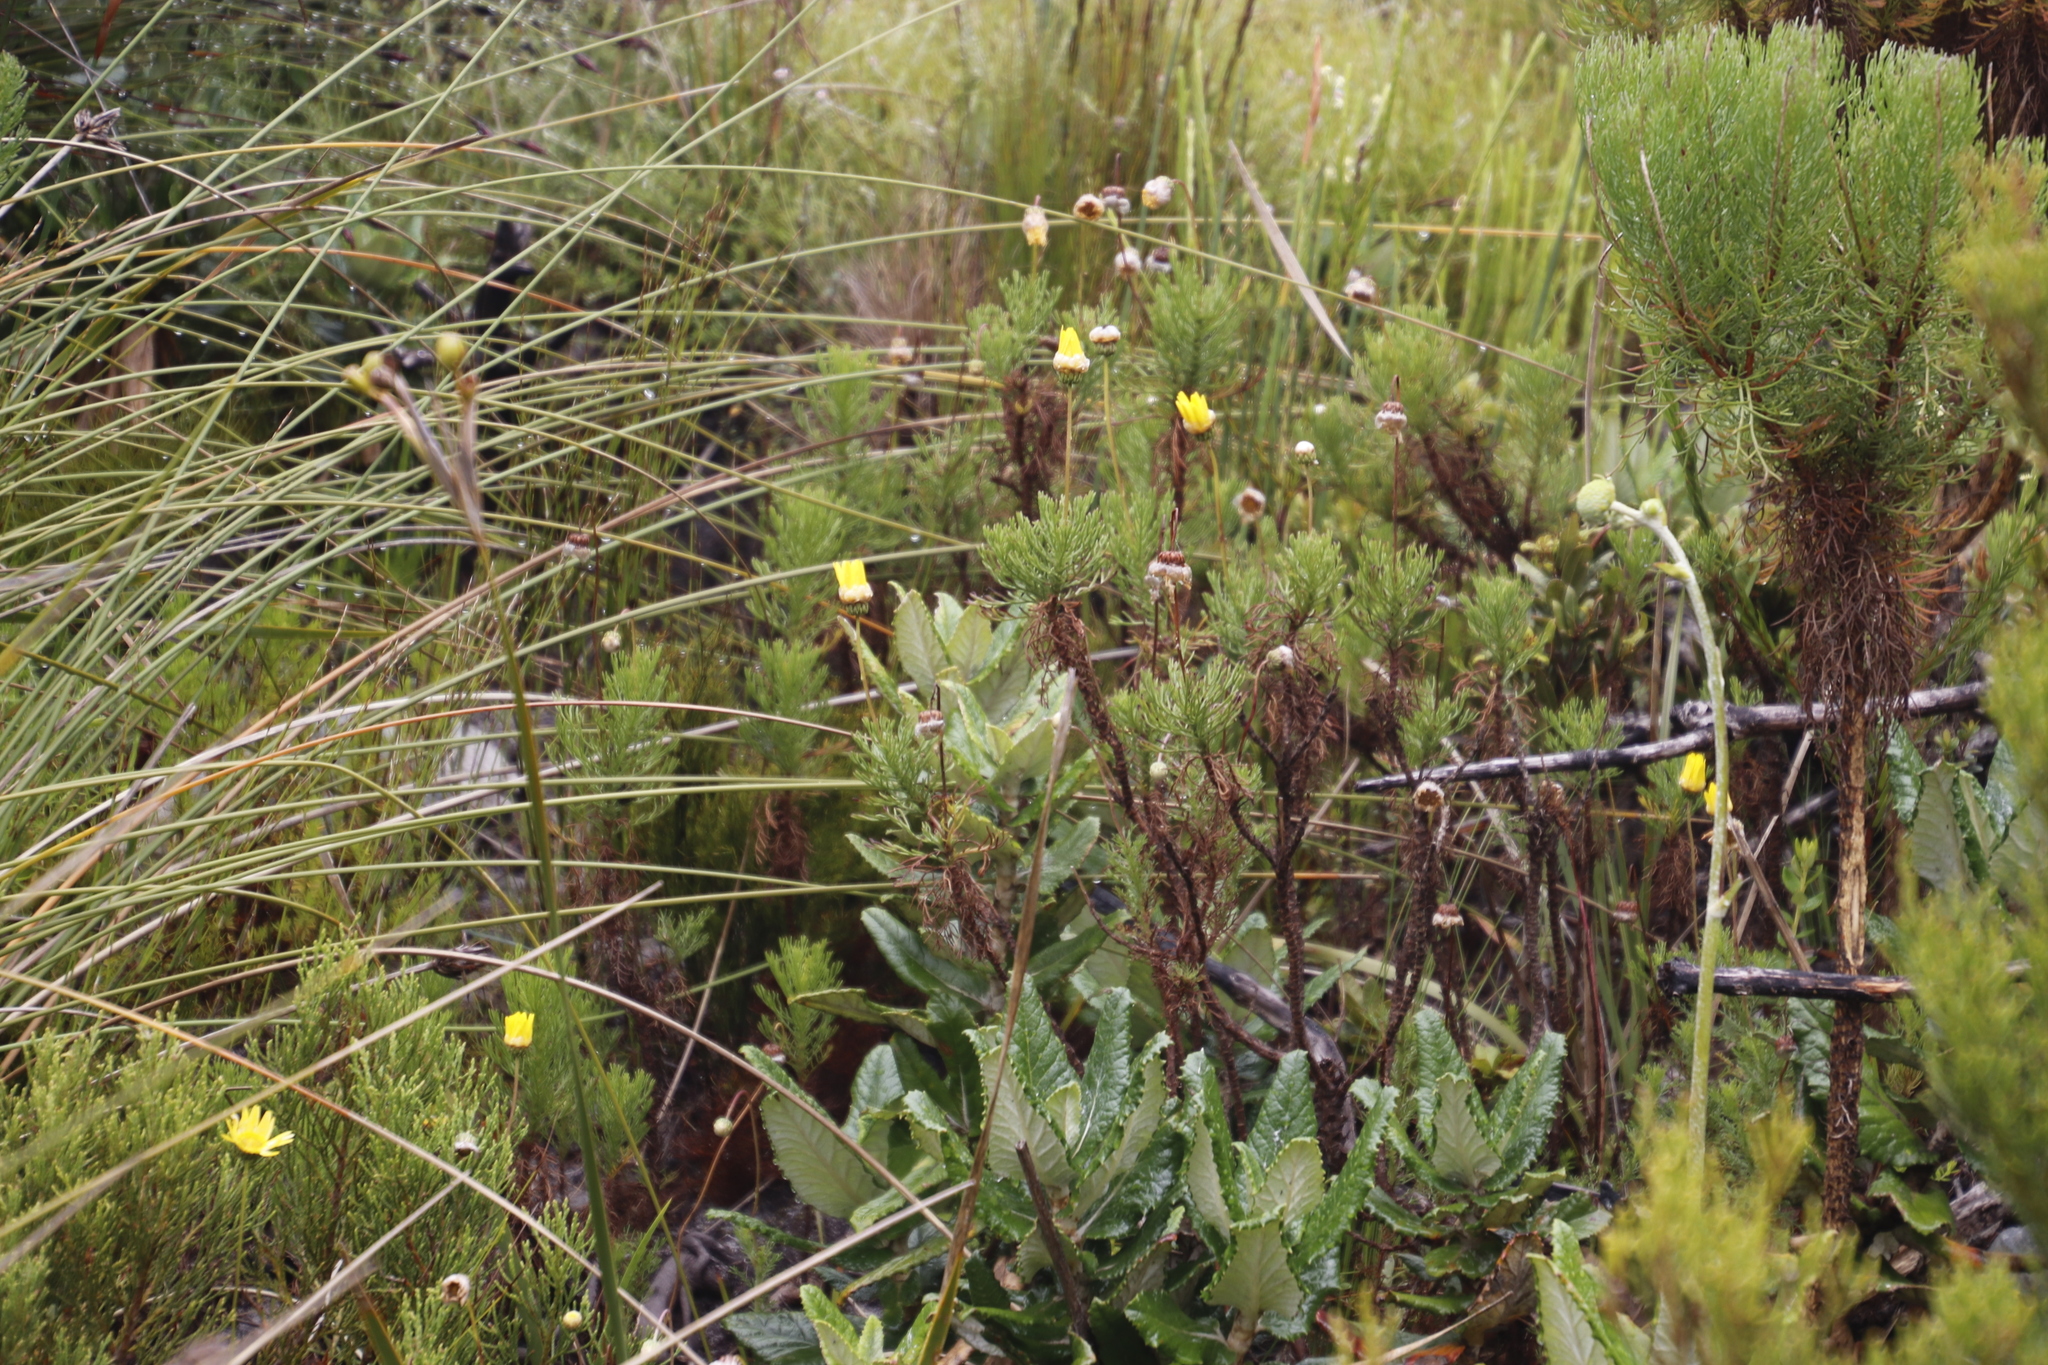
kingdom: Plantae
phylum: Tracheophyta
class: Magnoliopsida
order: Asterales
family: Asteraceae
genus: Euryops
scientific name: Euryops abrotanifolius
